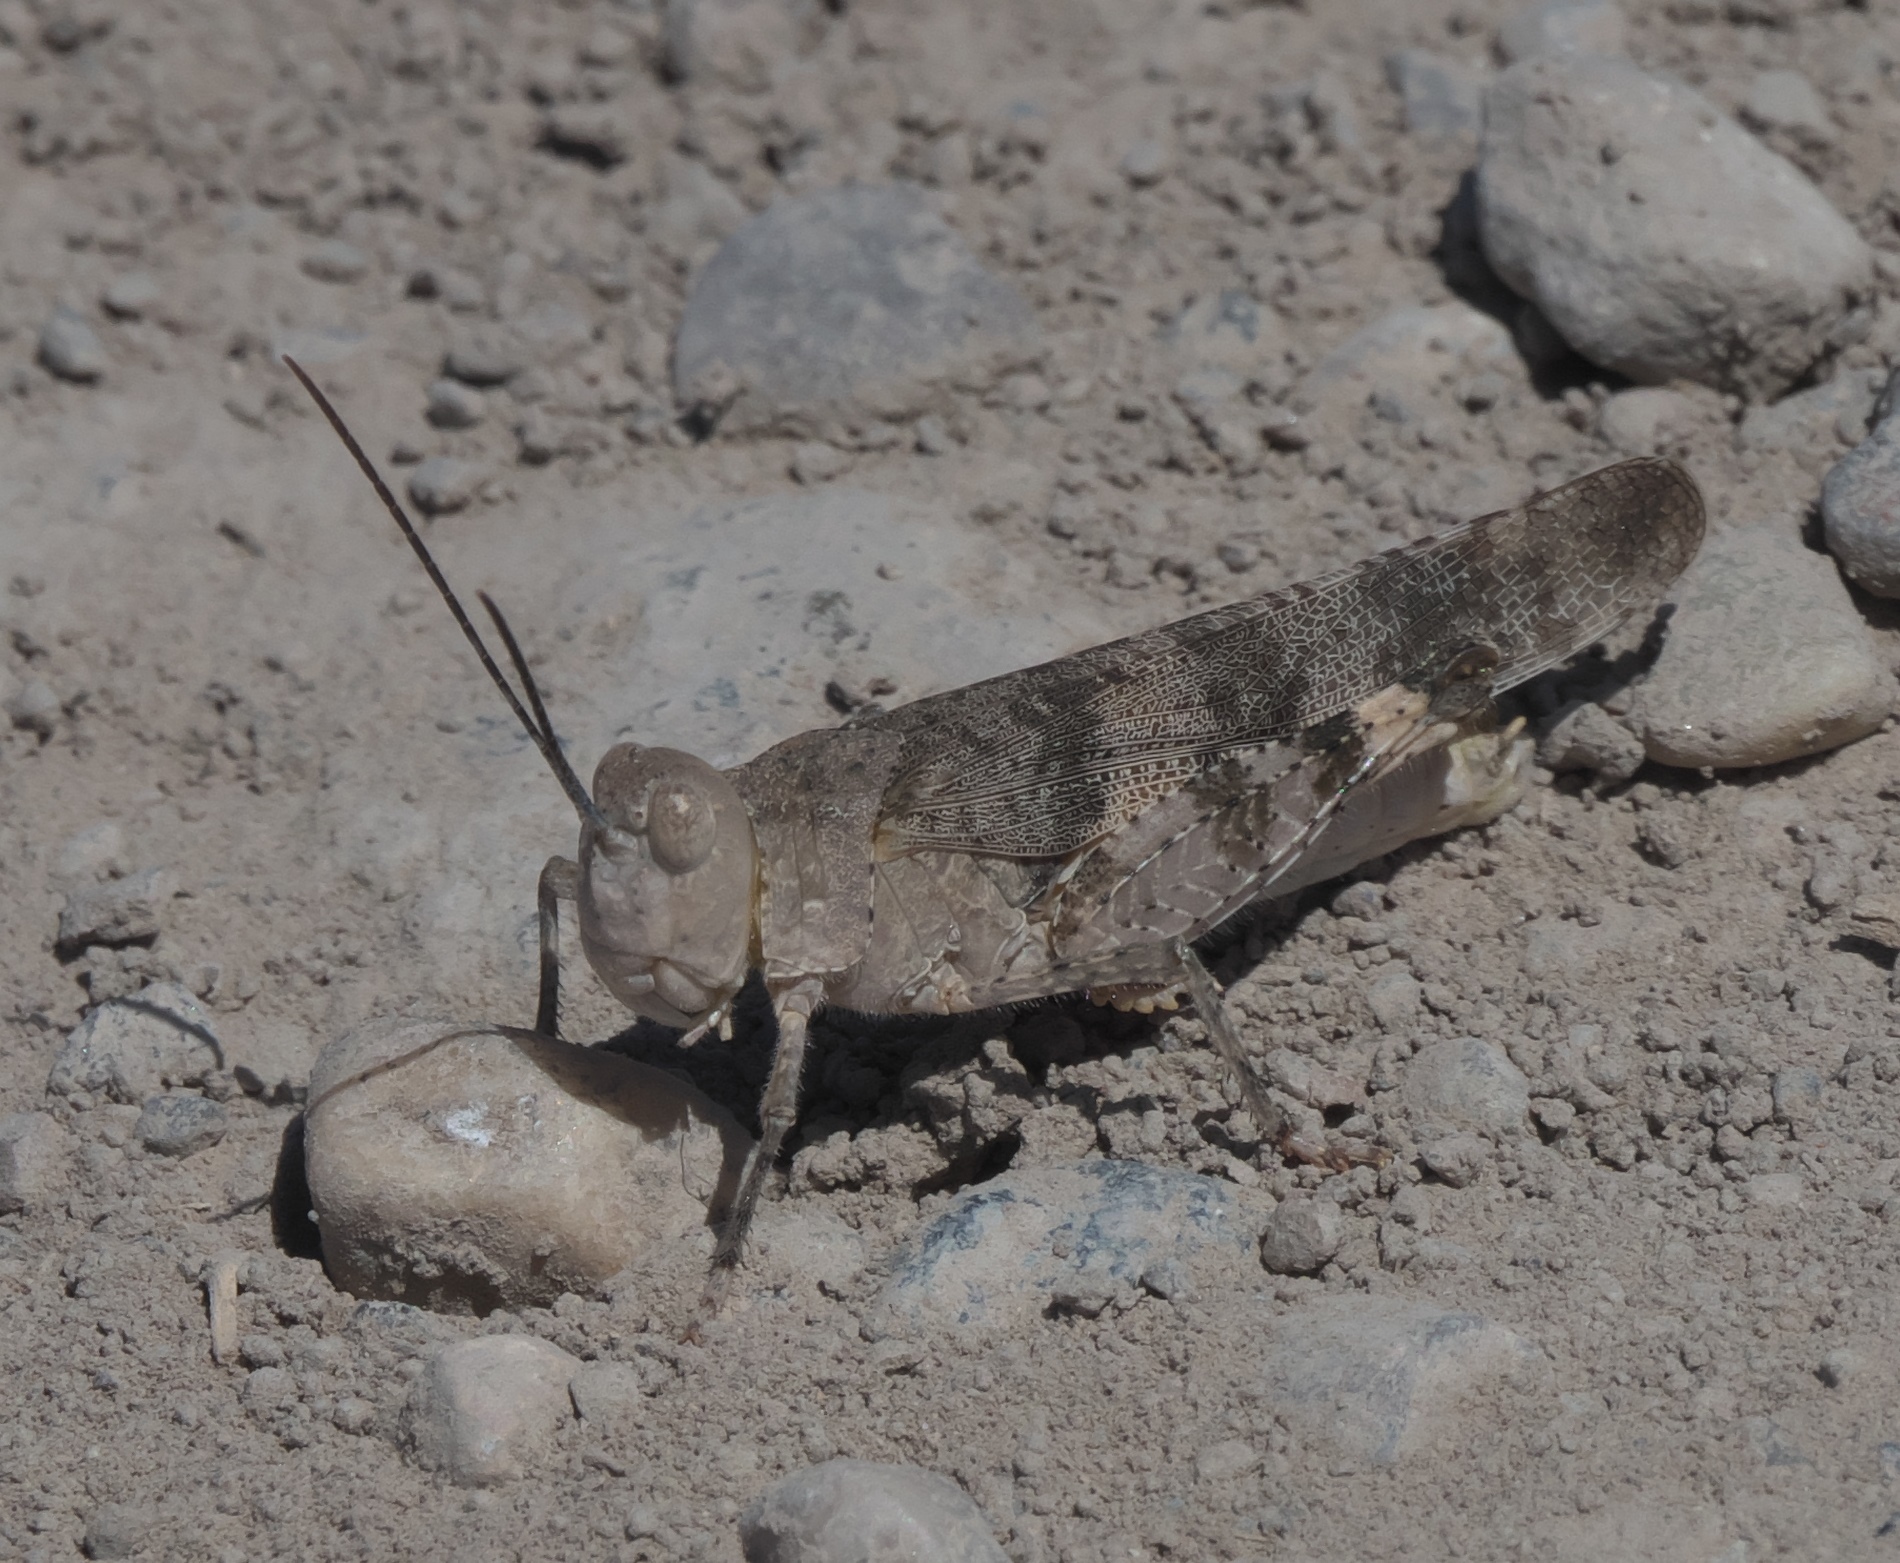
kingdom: Animalia
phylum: Arthropoda
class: Insecta
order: Orthoptera
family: Acrididae
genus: Spharagemon
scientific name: Spharagemon equale
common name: Orange-legged grasshopper
